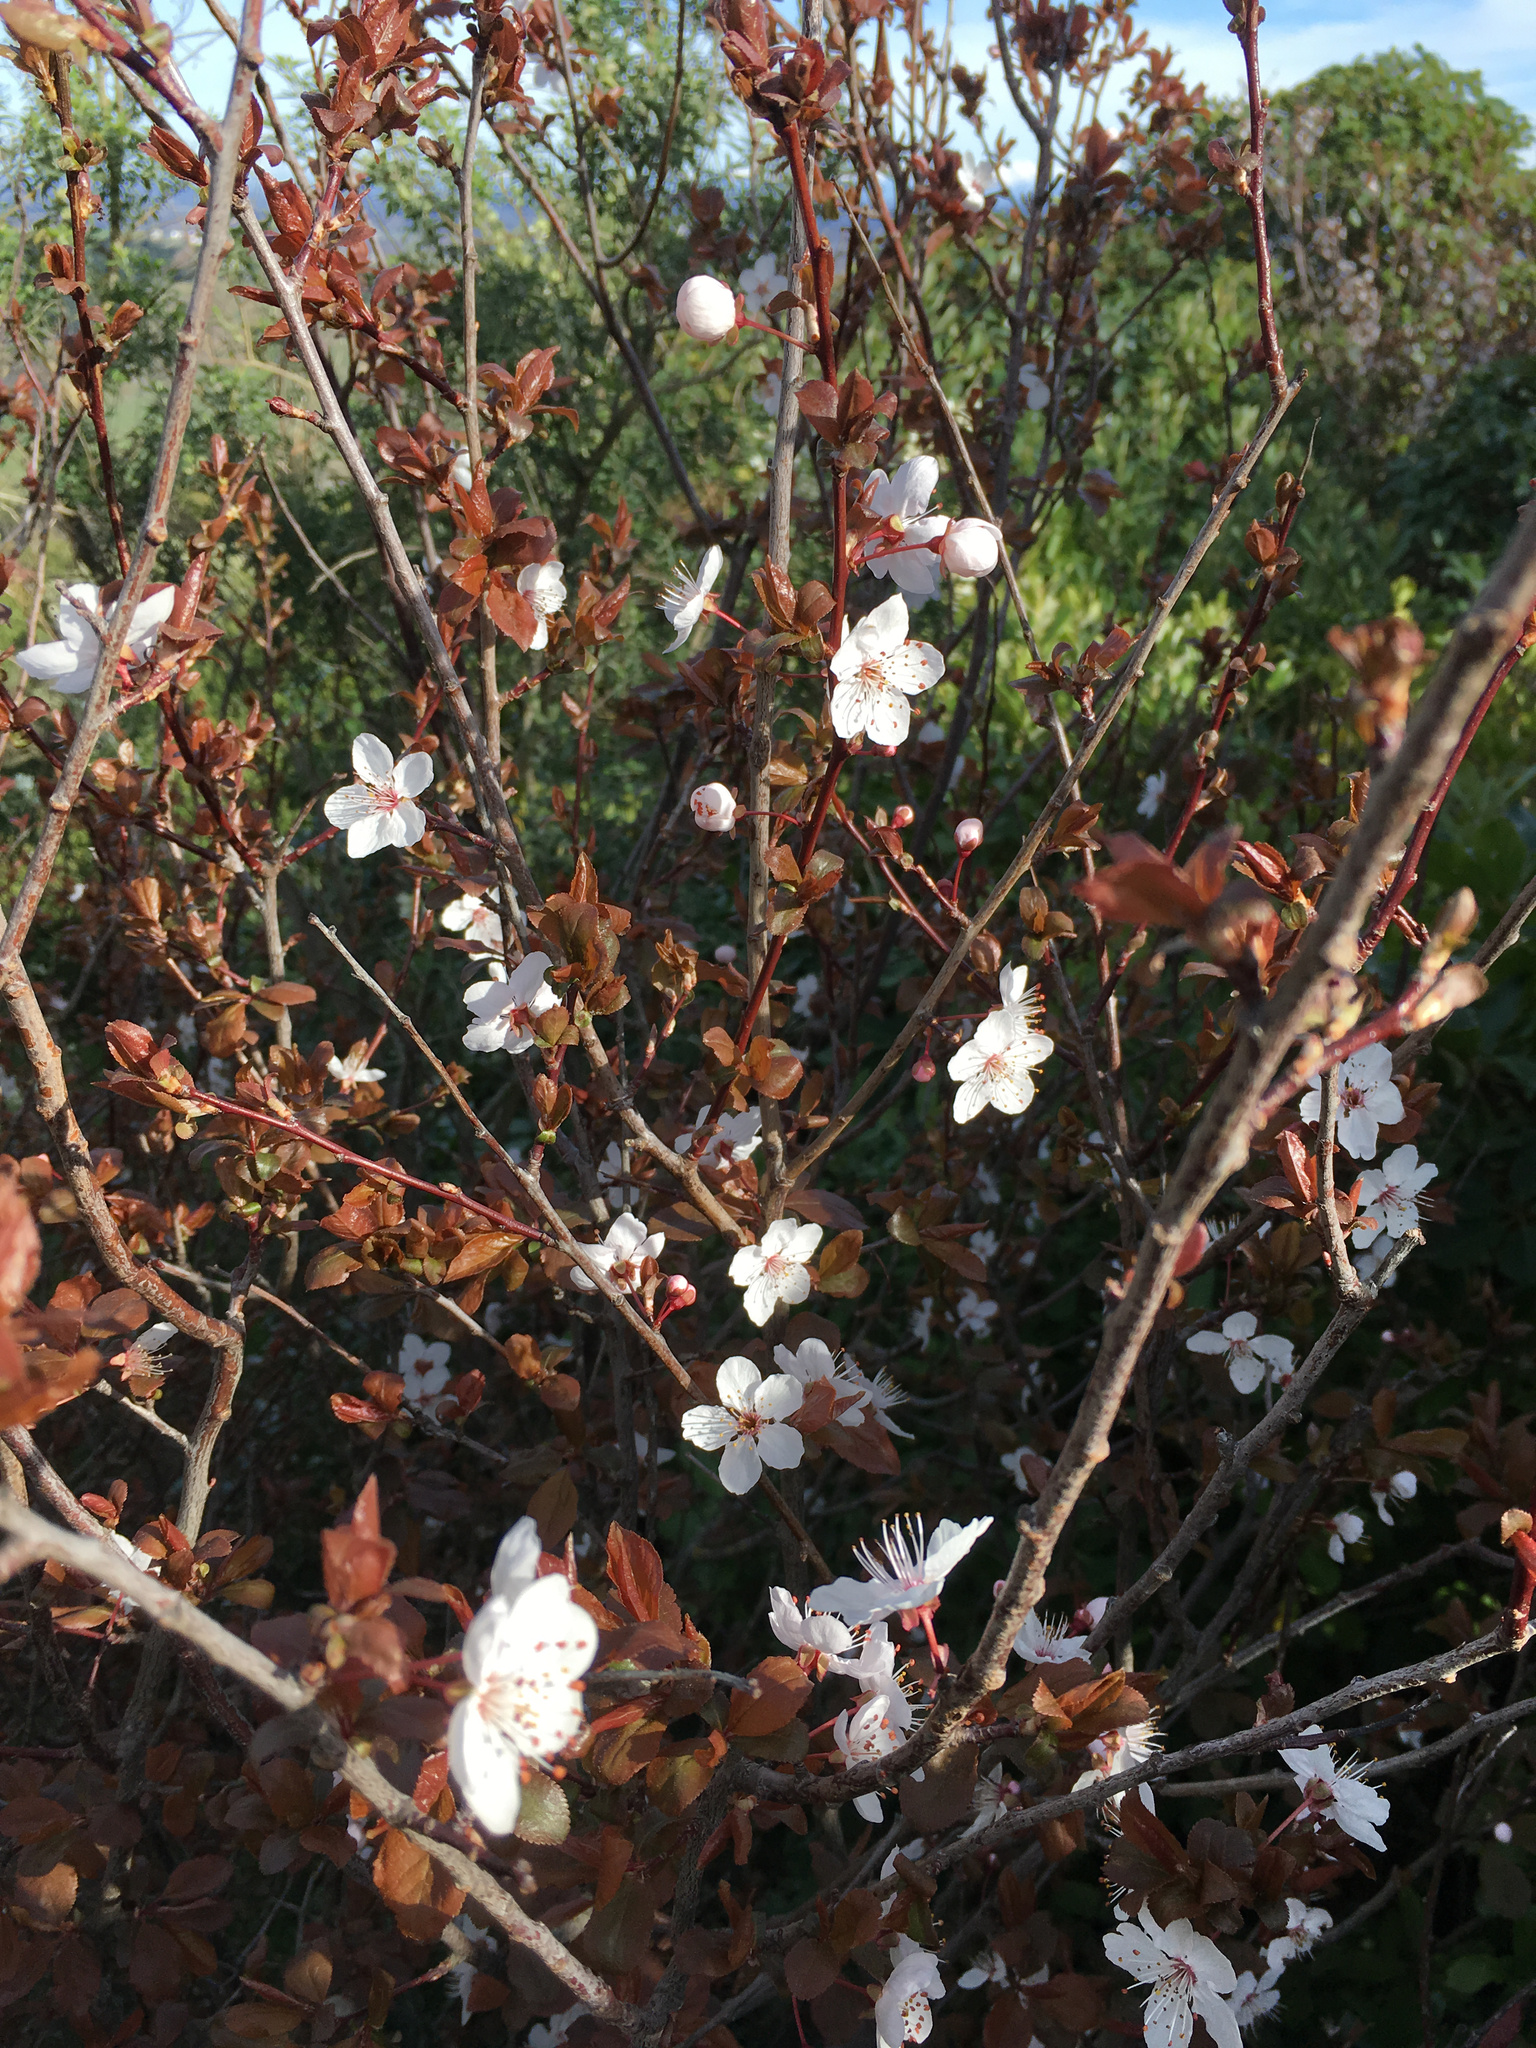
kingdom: Plantae
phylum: Tracheophyta
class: Magnoliopsida
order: Rosales
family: Rosaceae
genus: Prunus
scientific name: Prunus cerasifera
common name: Cherry plum
